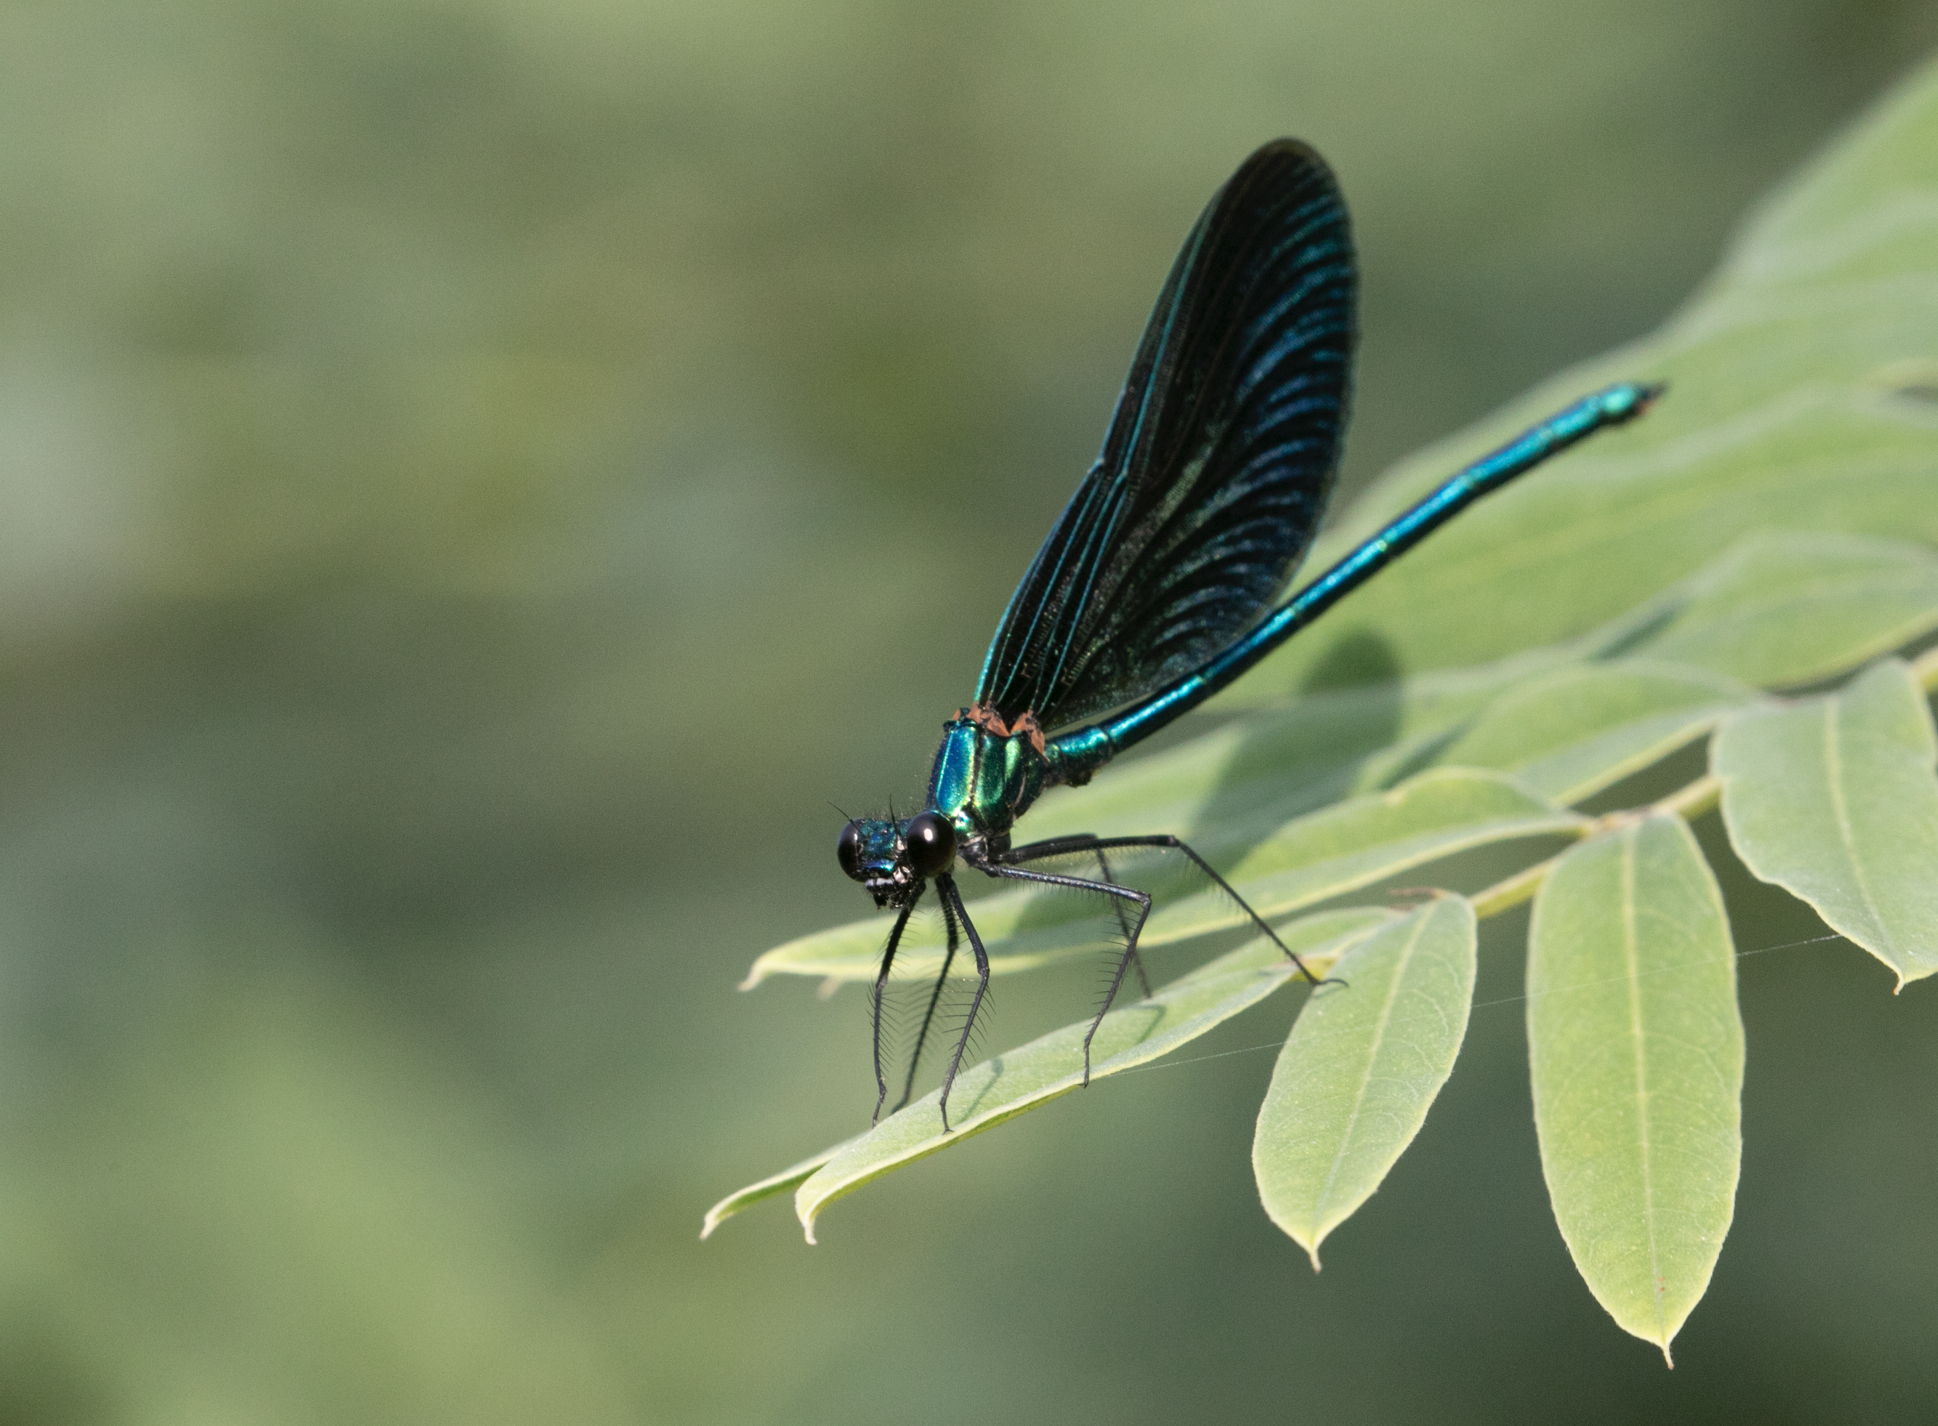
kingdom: Animalia
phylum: Arthropoda
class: Insecta
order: Odonata
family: Calopterygidae
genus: Calopteryx
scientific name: Calopteryx virgo
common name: Beautiful demoiselle
